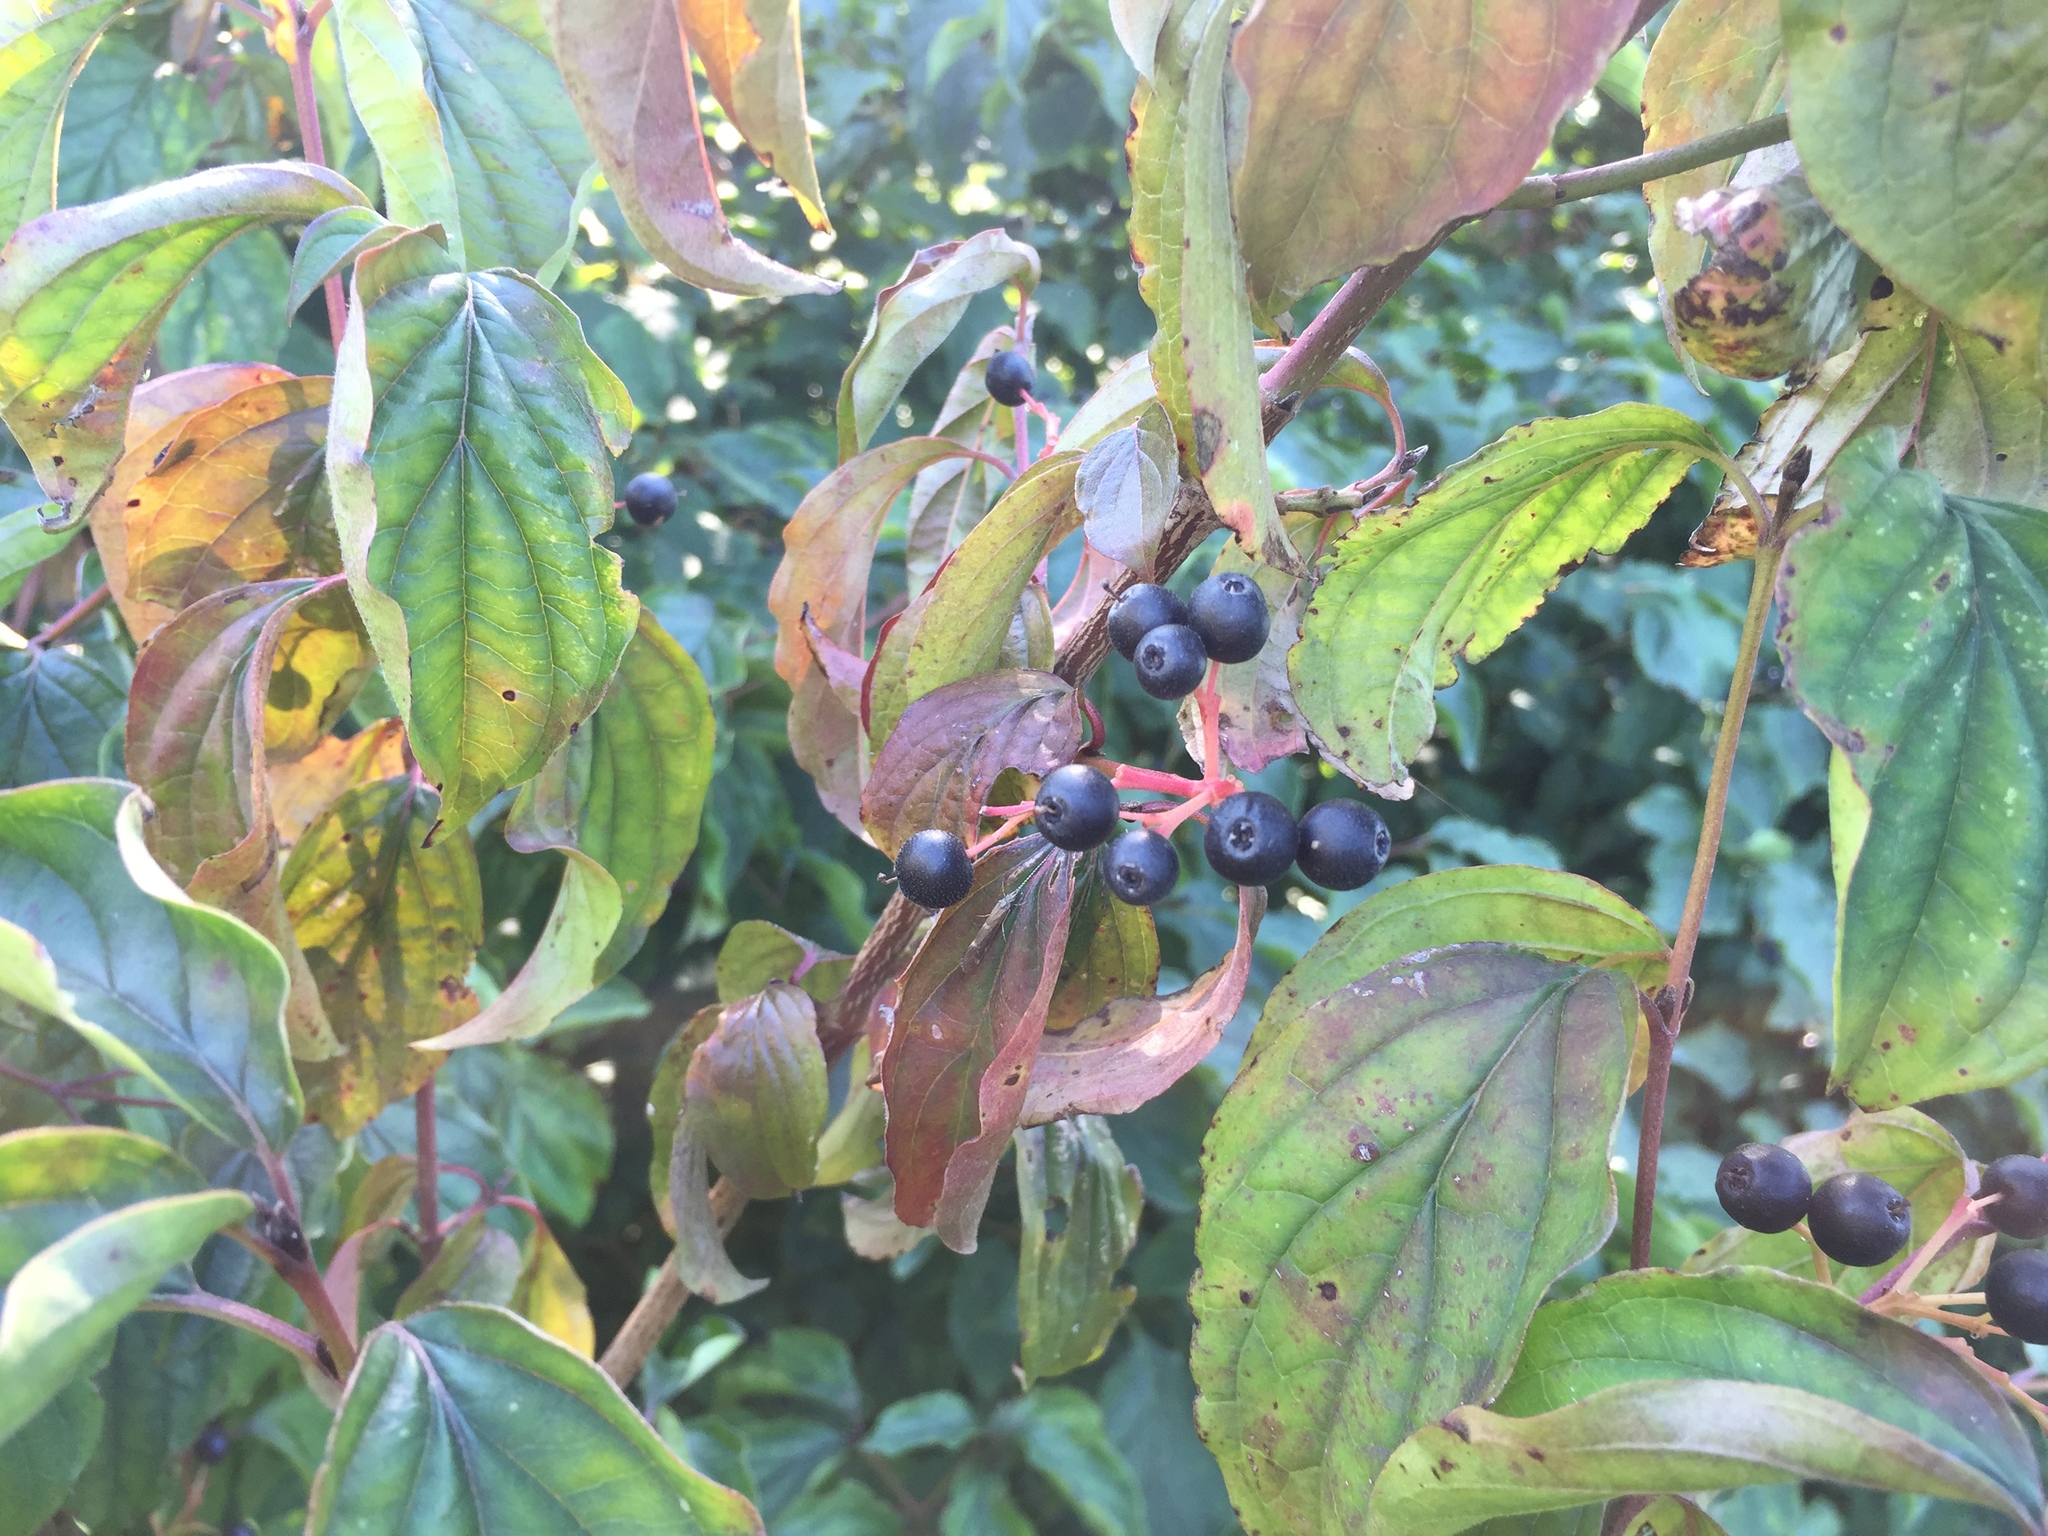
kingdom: Plantae
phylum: Tracheophyta
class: Magnoliopsida
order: Cornales
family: Cornaceae
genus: Cornus
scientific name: Cornus sanguinea
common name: Dogwood
